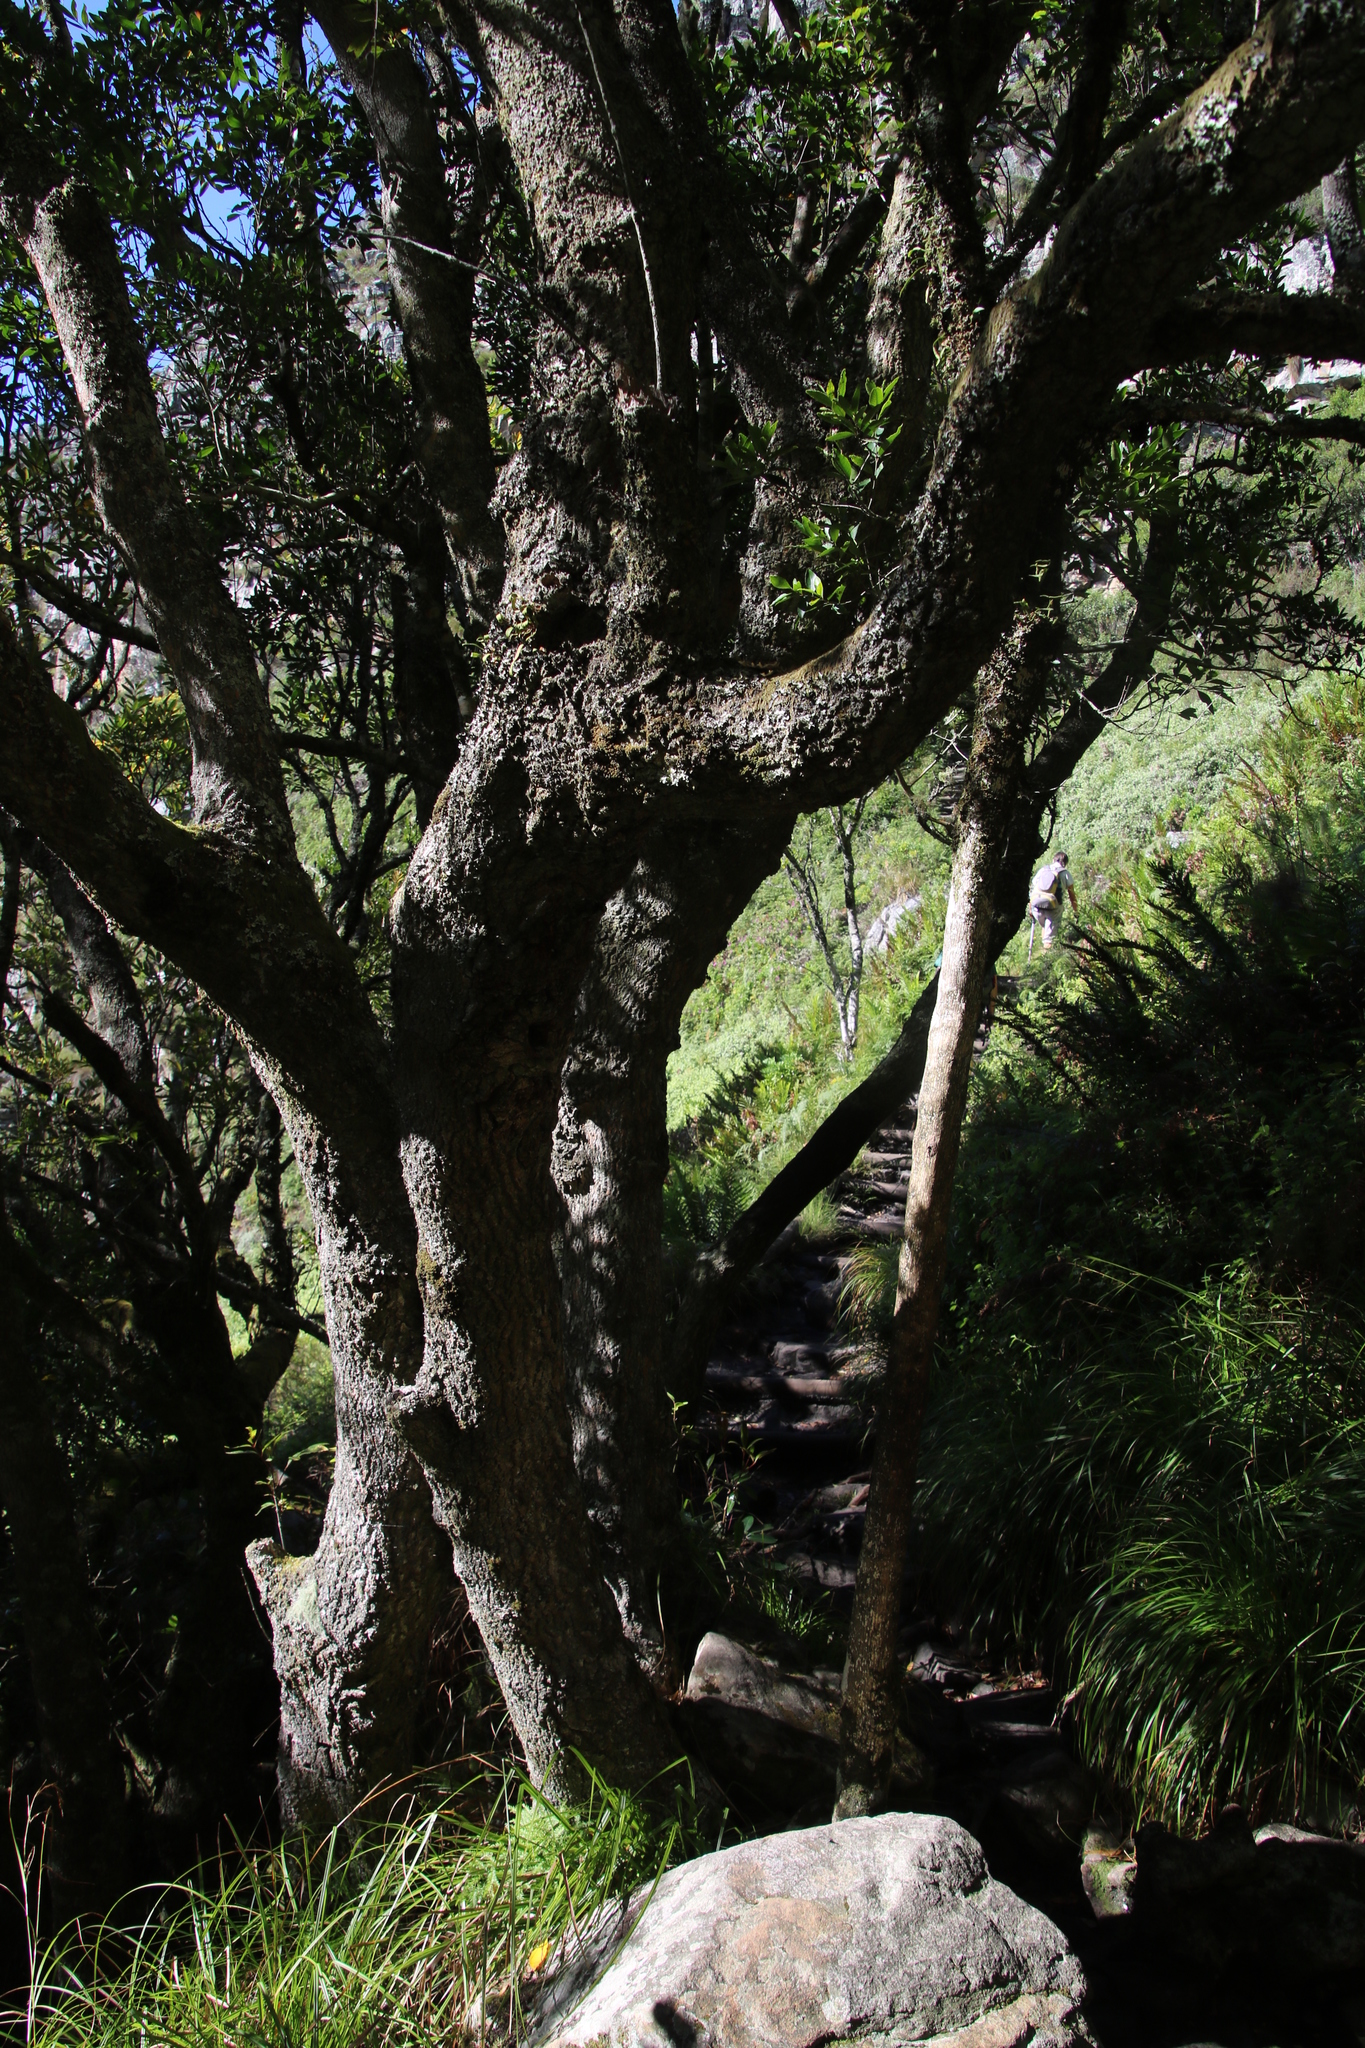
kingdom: Plantae
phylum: Tracheophyta
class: Magnoliopsida
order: Lamiales
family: Stilbaceae
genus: Halleria
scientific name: Halleria lucida
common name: Tree fuschia
